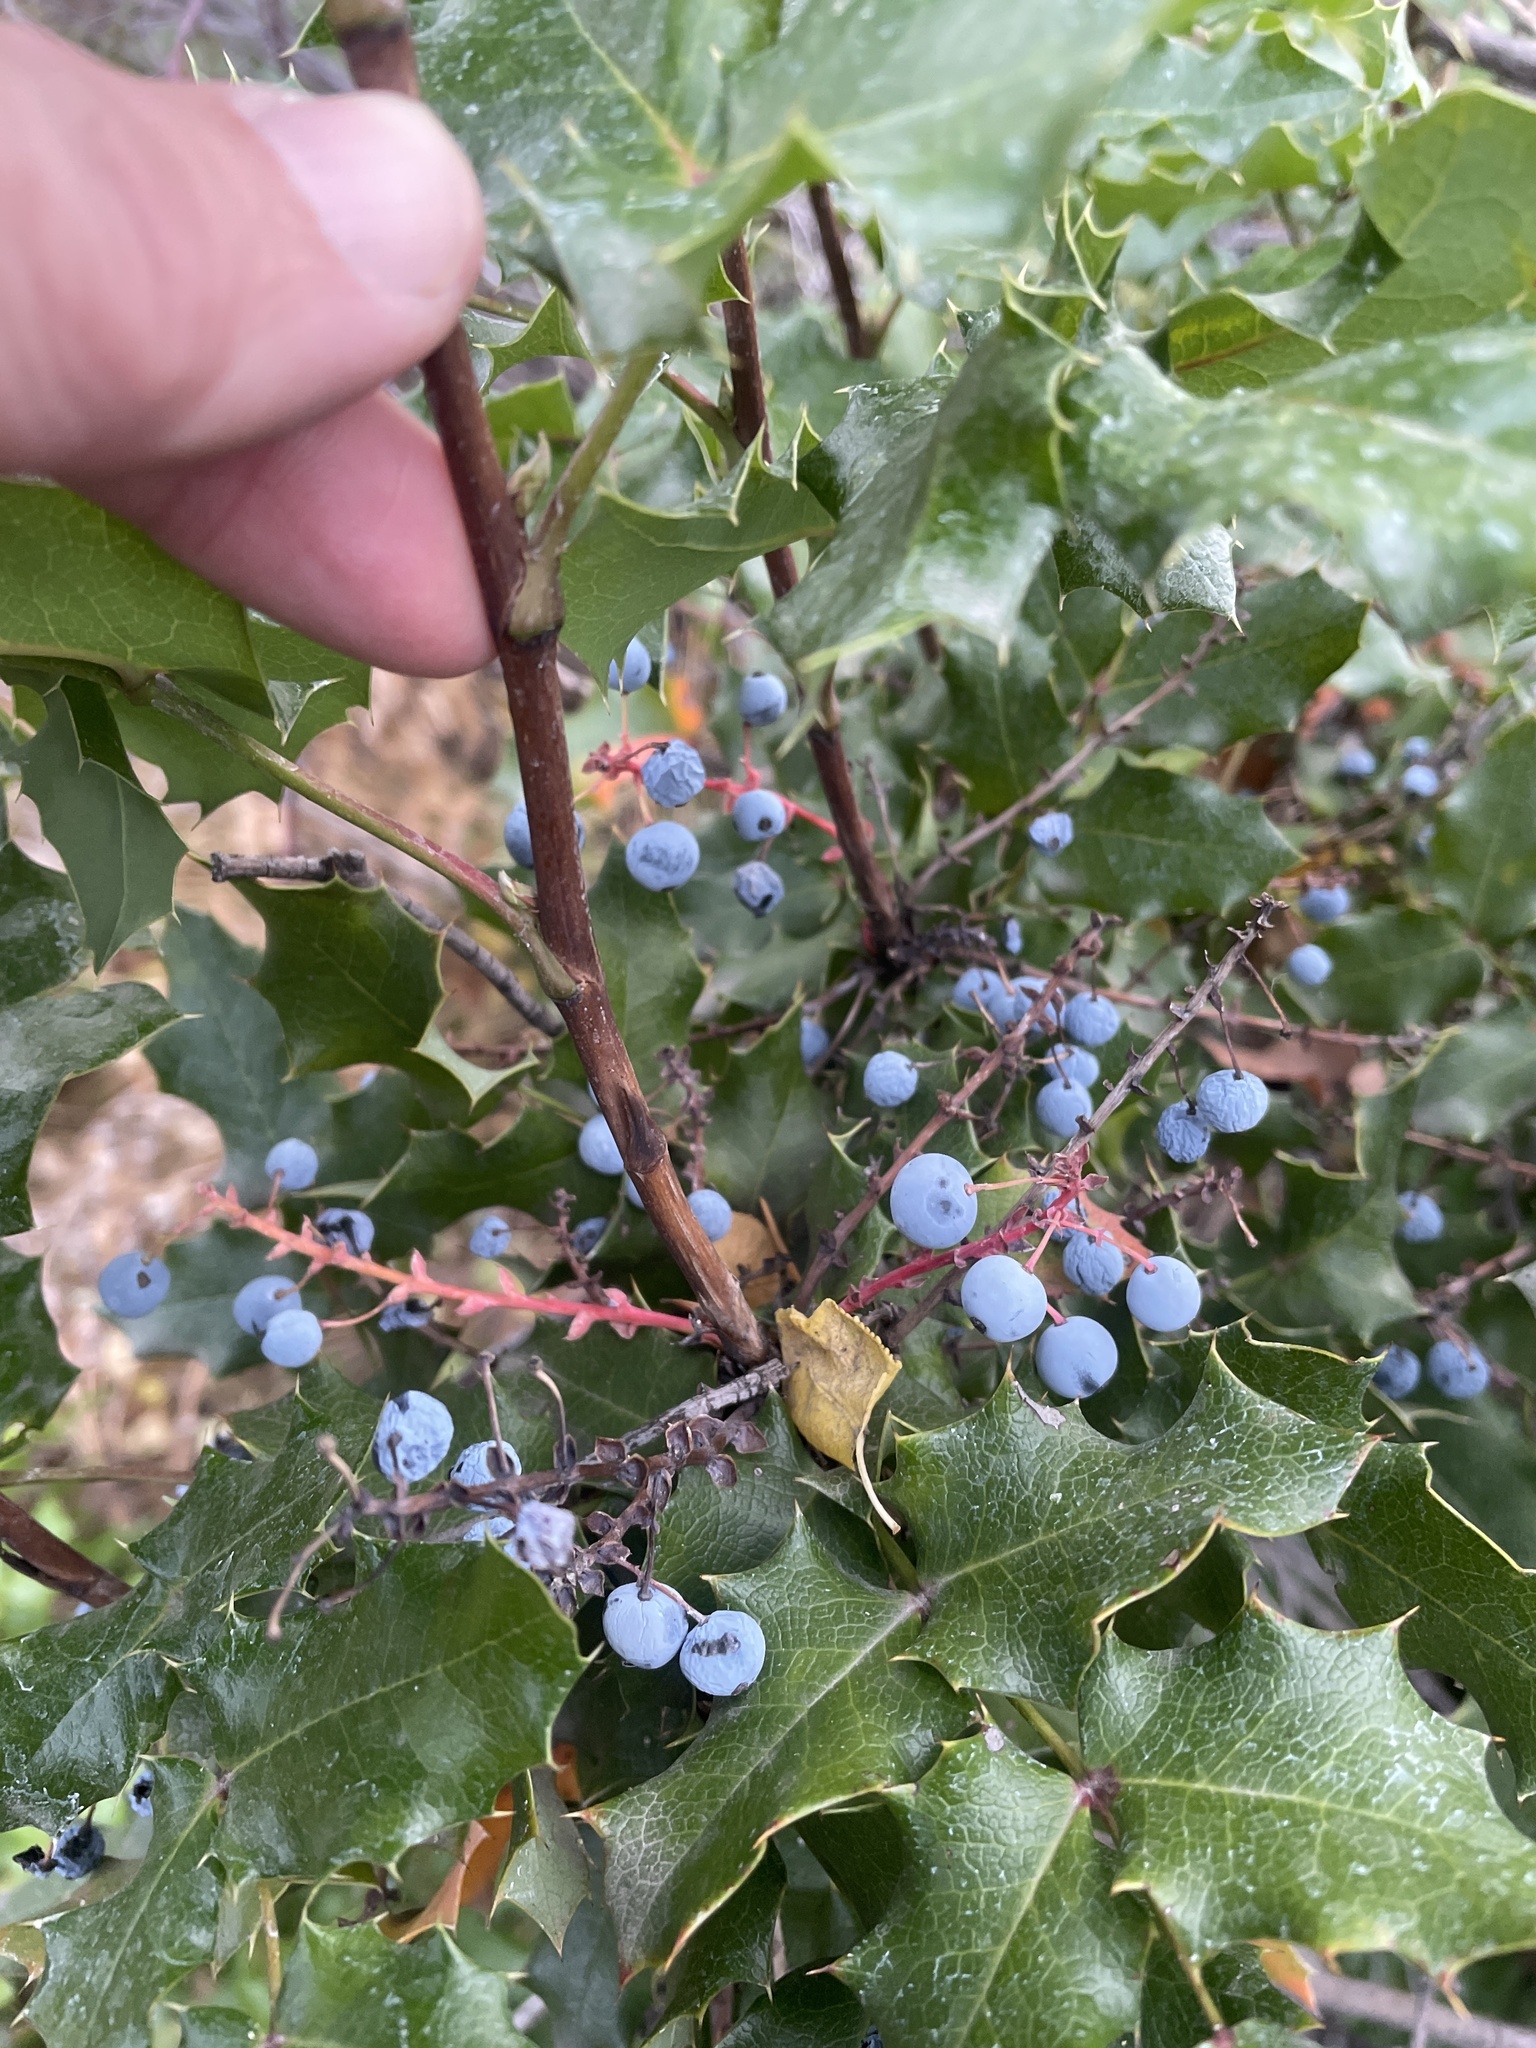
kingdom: Plantae
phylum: Tracheophyta
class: Magnoliopsida
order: Ranunculales
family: Berberidaceae
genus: Mahonia
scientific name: Mahonia aquifolium
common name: Oregon-grape
